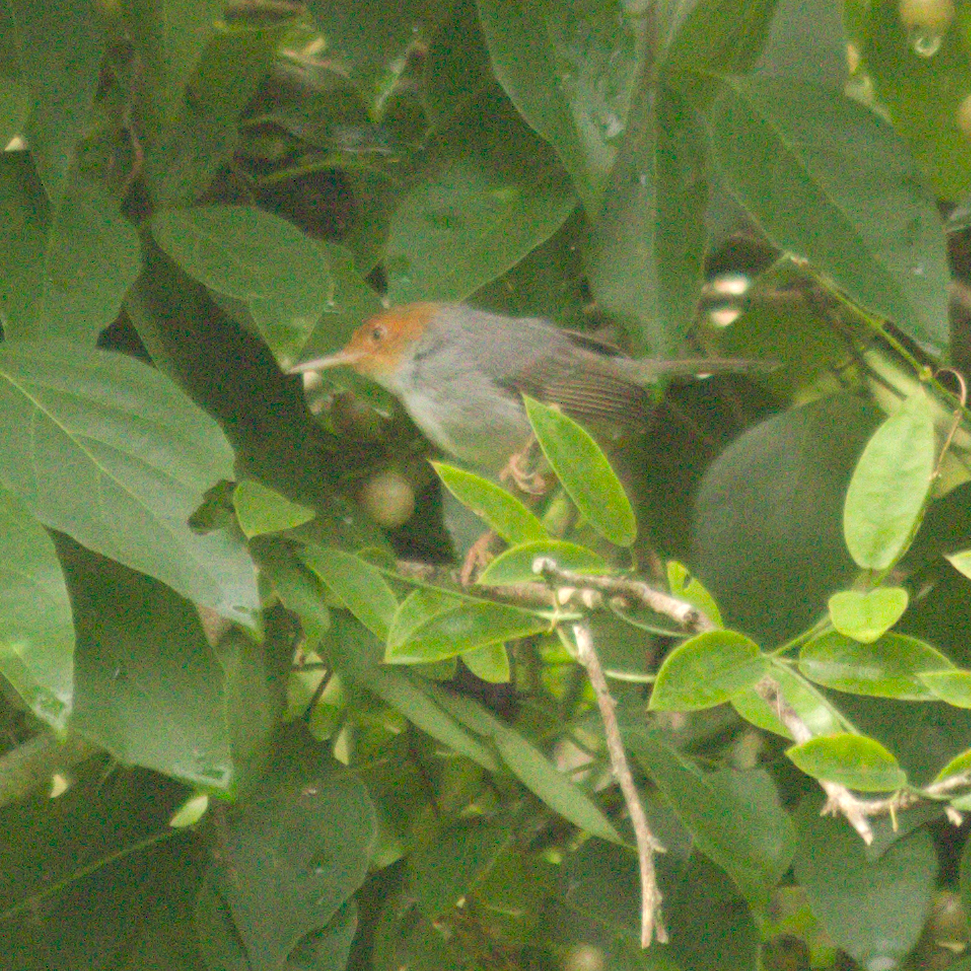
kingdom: Animalia
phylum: Chordata
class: Aves
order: Passeriformes
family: Cisticolidae
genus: Orthotomus
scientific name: Orthotomus ruficeps
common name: Ashy tailorbird
